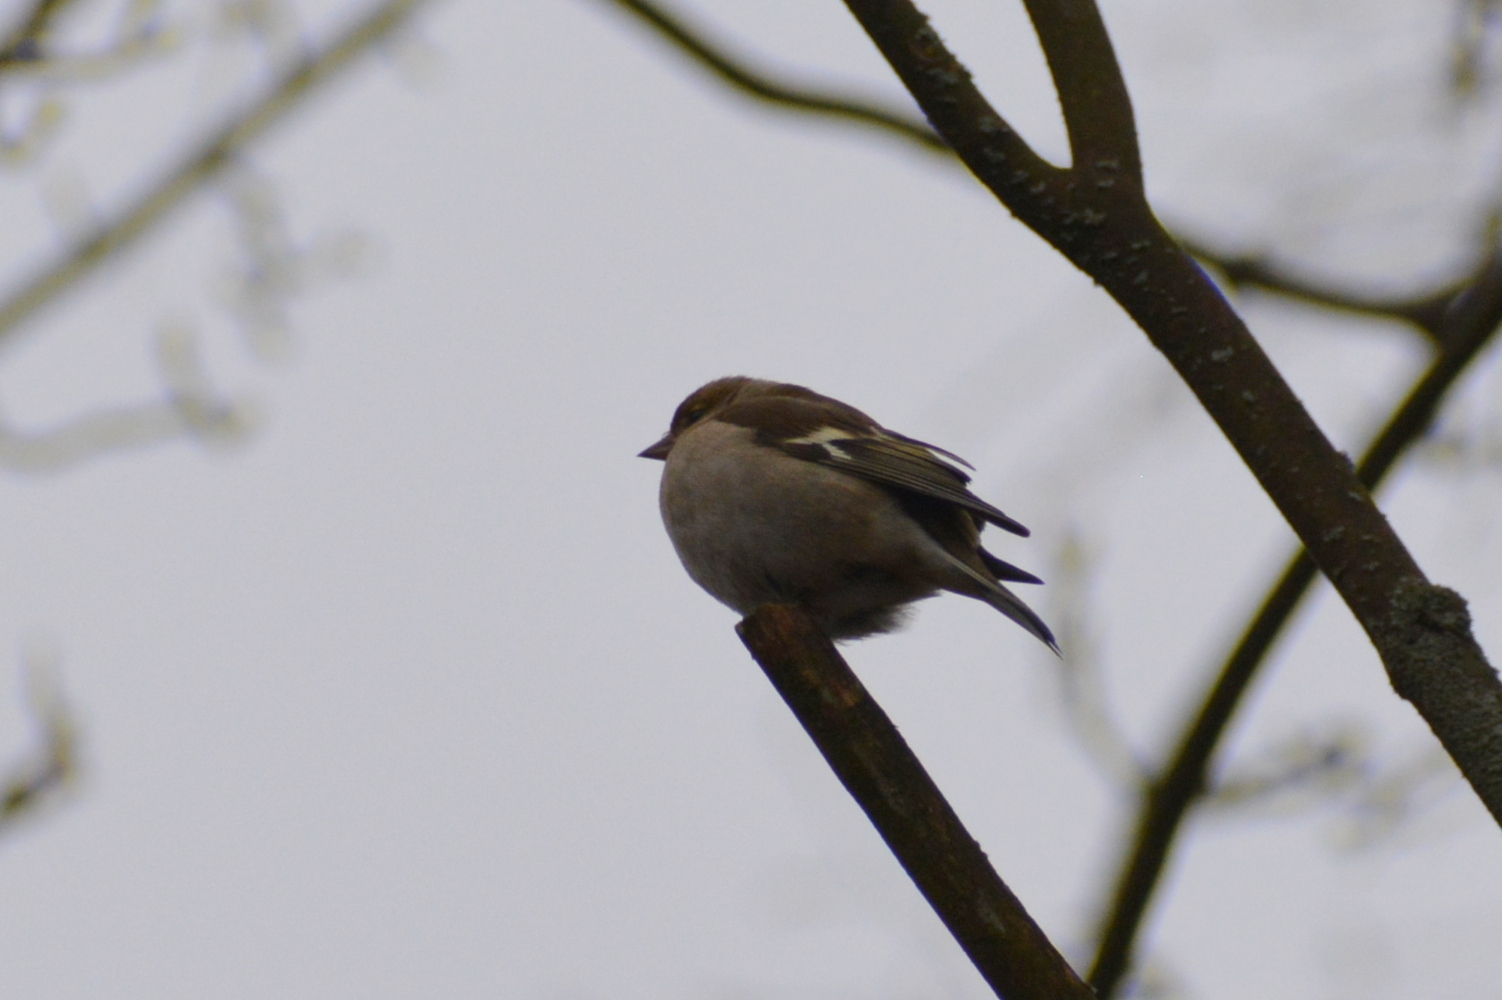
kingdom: Animalia
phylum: Chordata
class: Aves
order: Passeriformes
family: Fringillidae
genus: Fringilla
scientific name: Fringilla coelebs
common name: Common chaffinch
